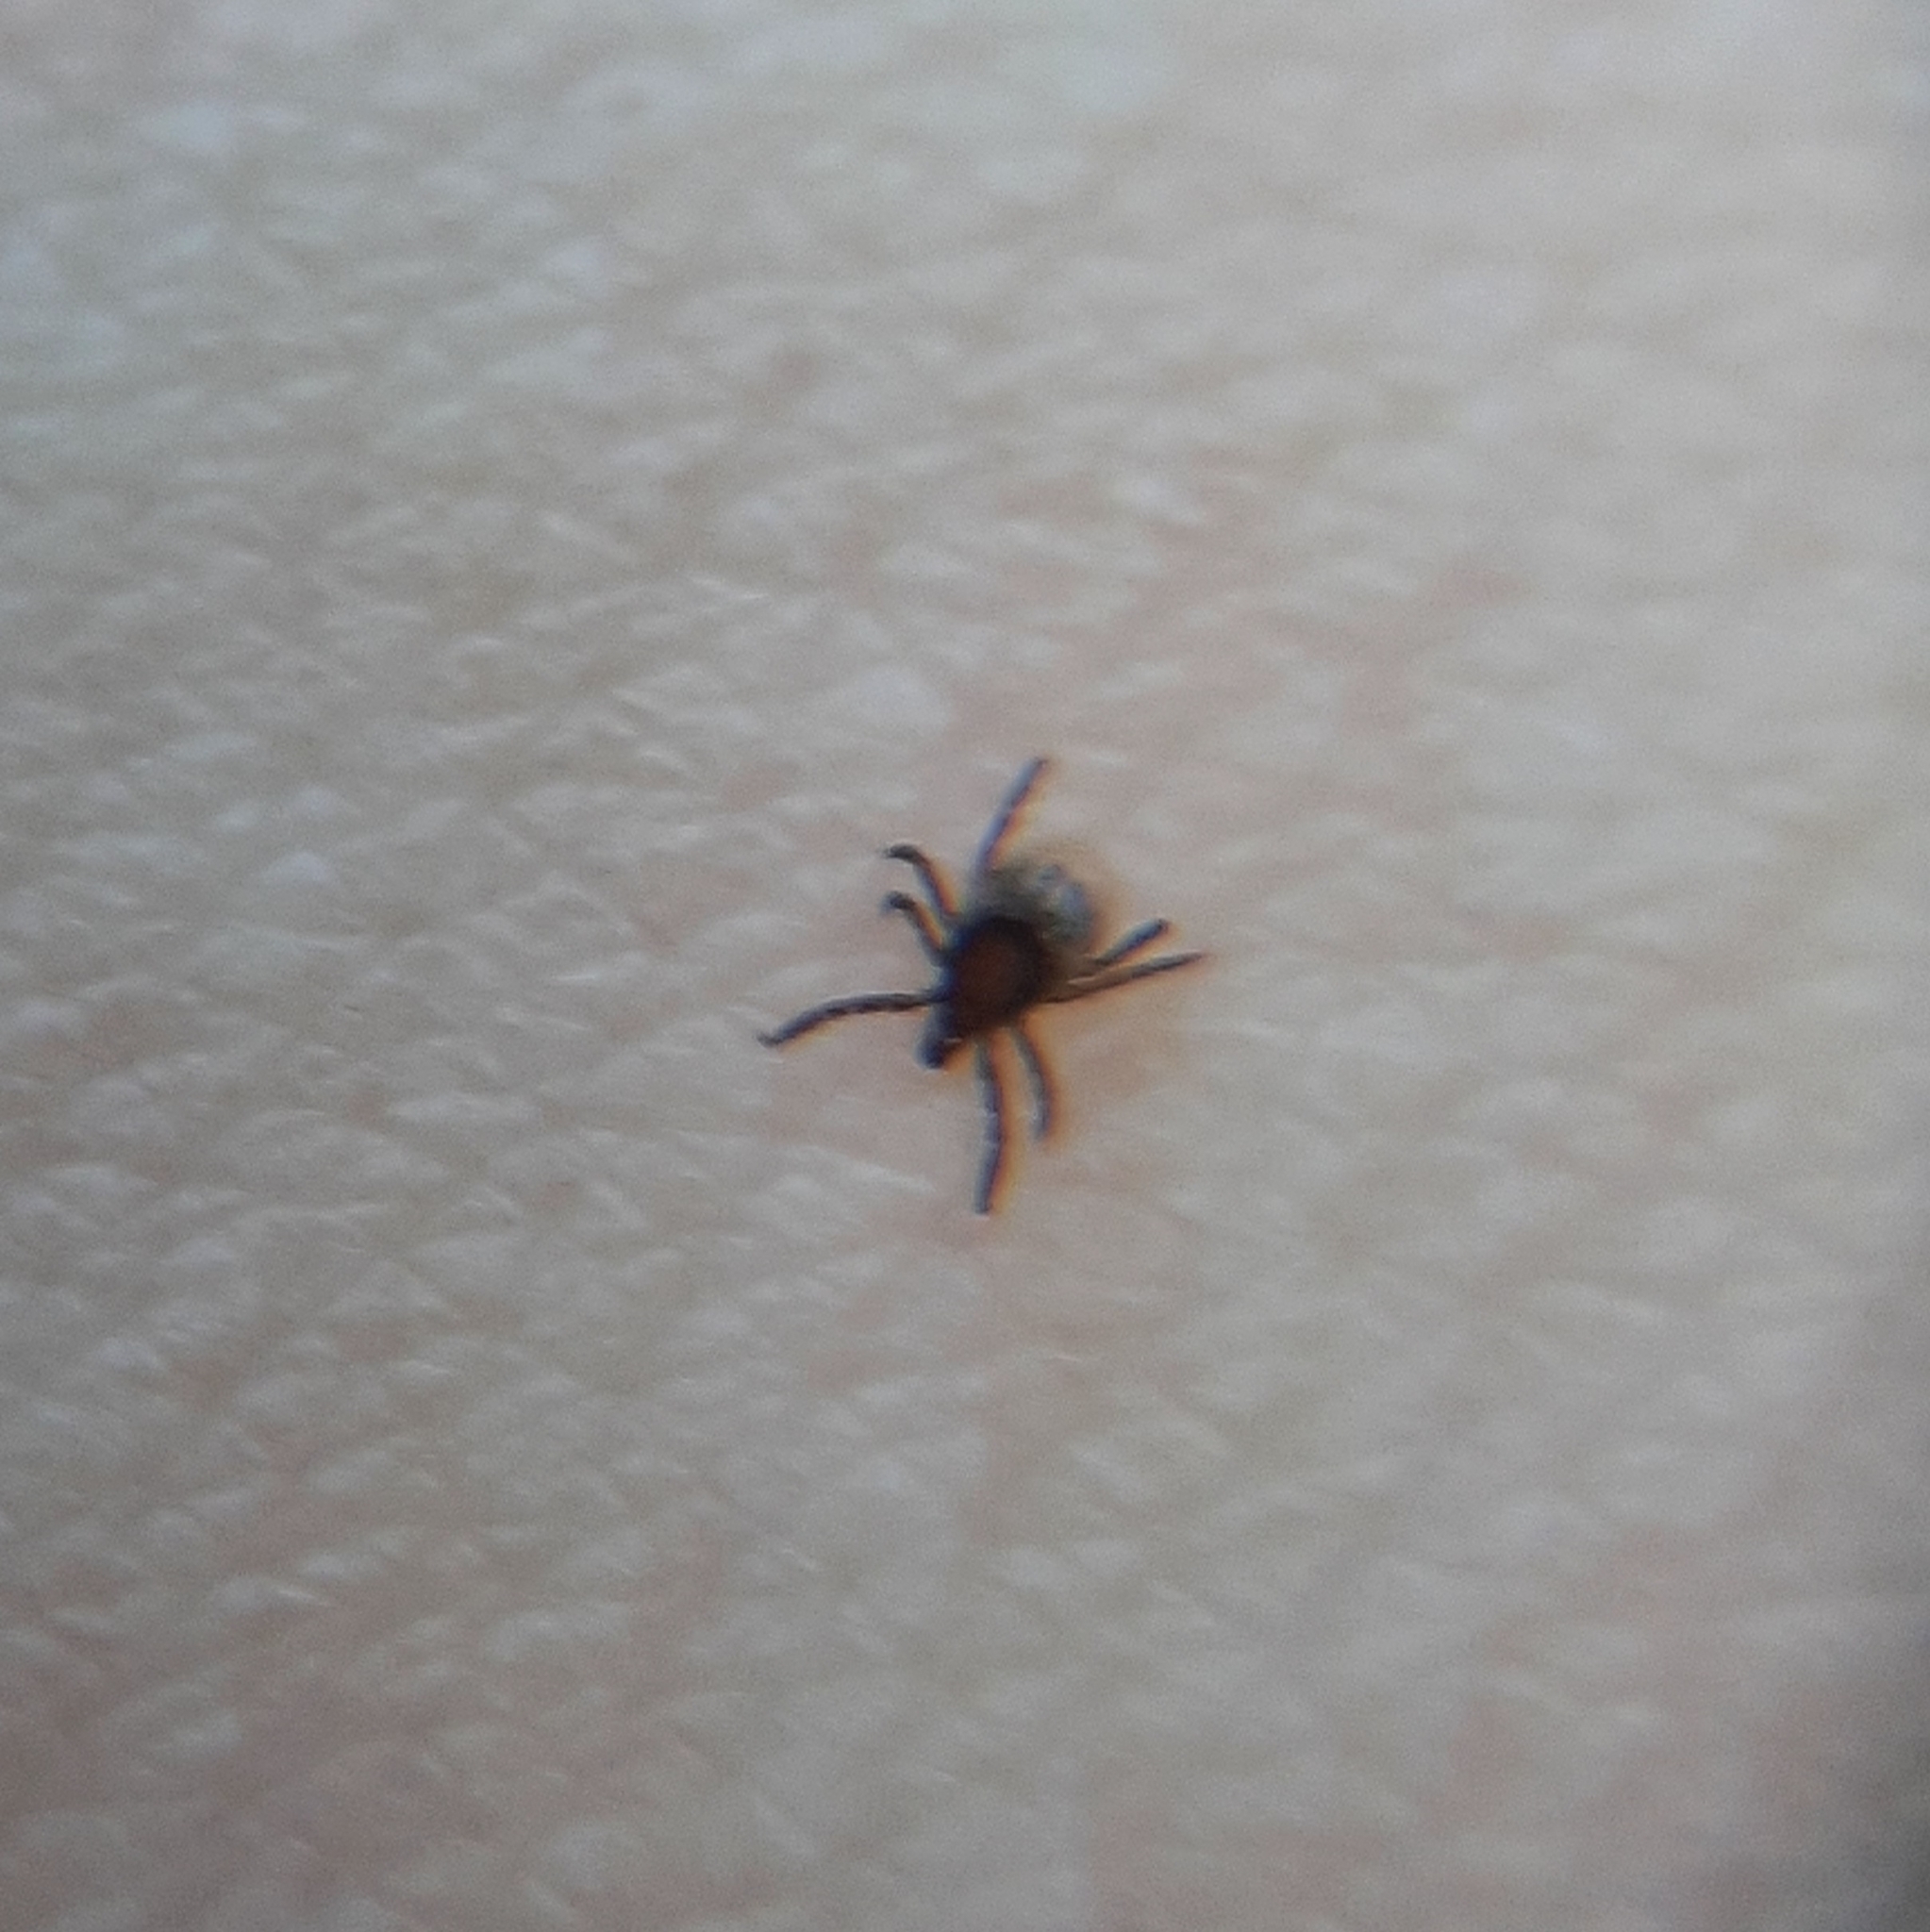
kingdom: Animalia
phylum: Arthropoda
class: Arachnida
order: Ixodida
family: Ixodidae
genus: Ixodes
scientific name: Ixodes ricinus
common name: Castor bean tick
